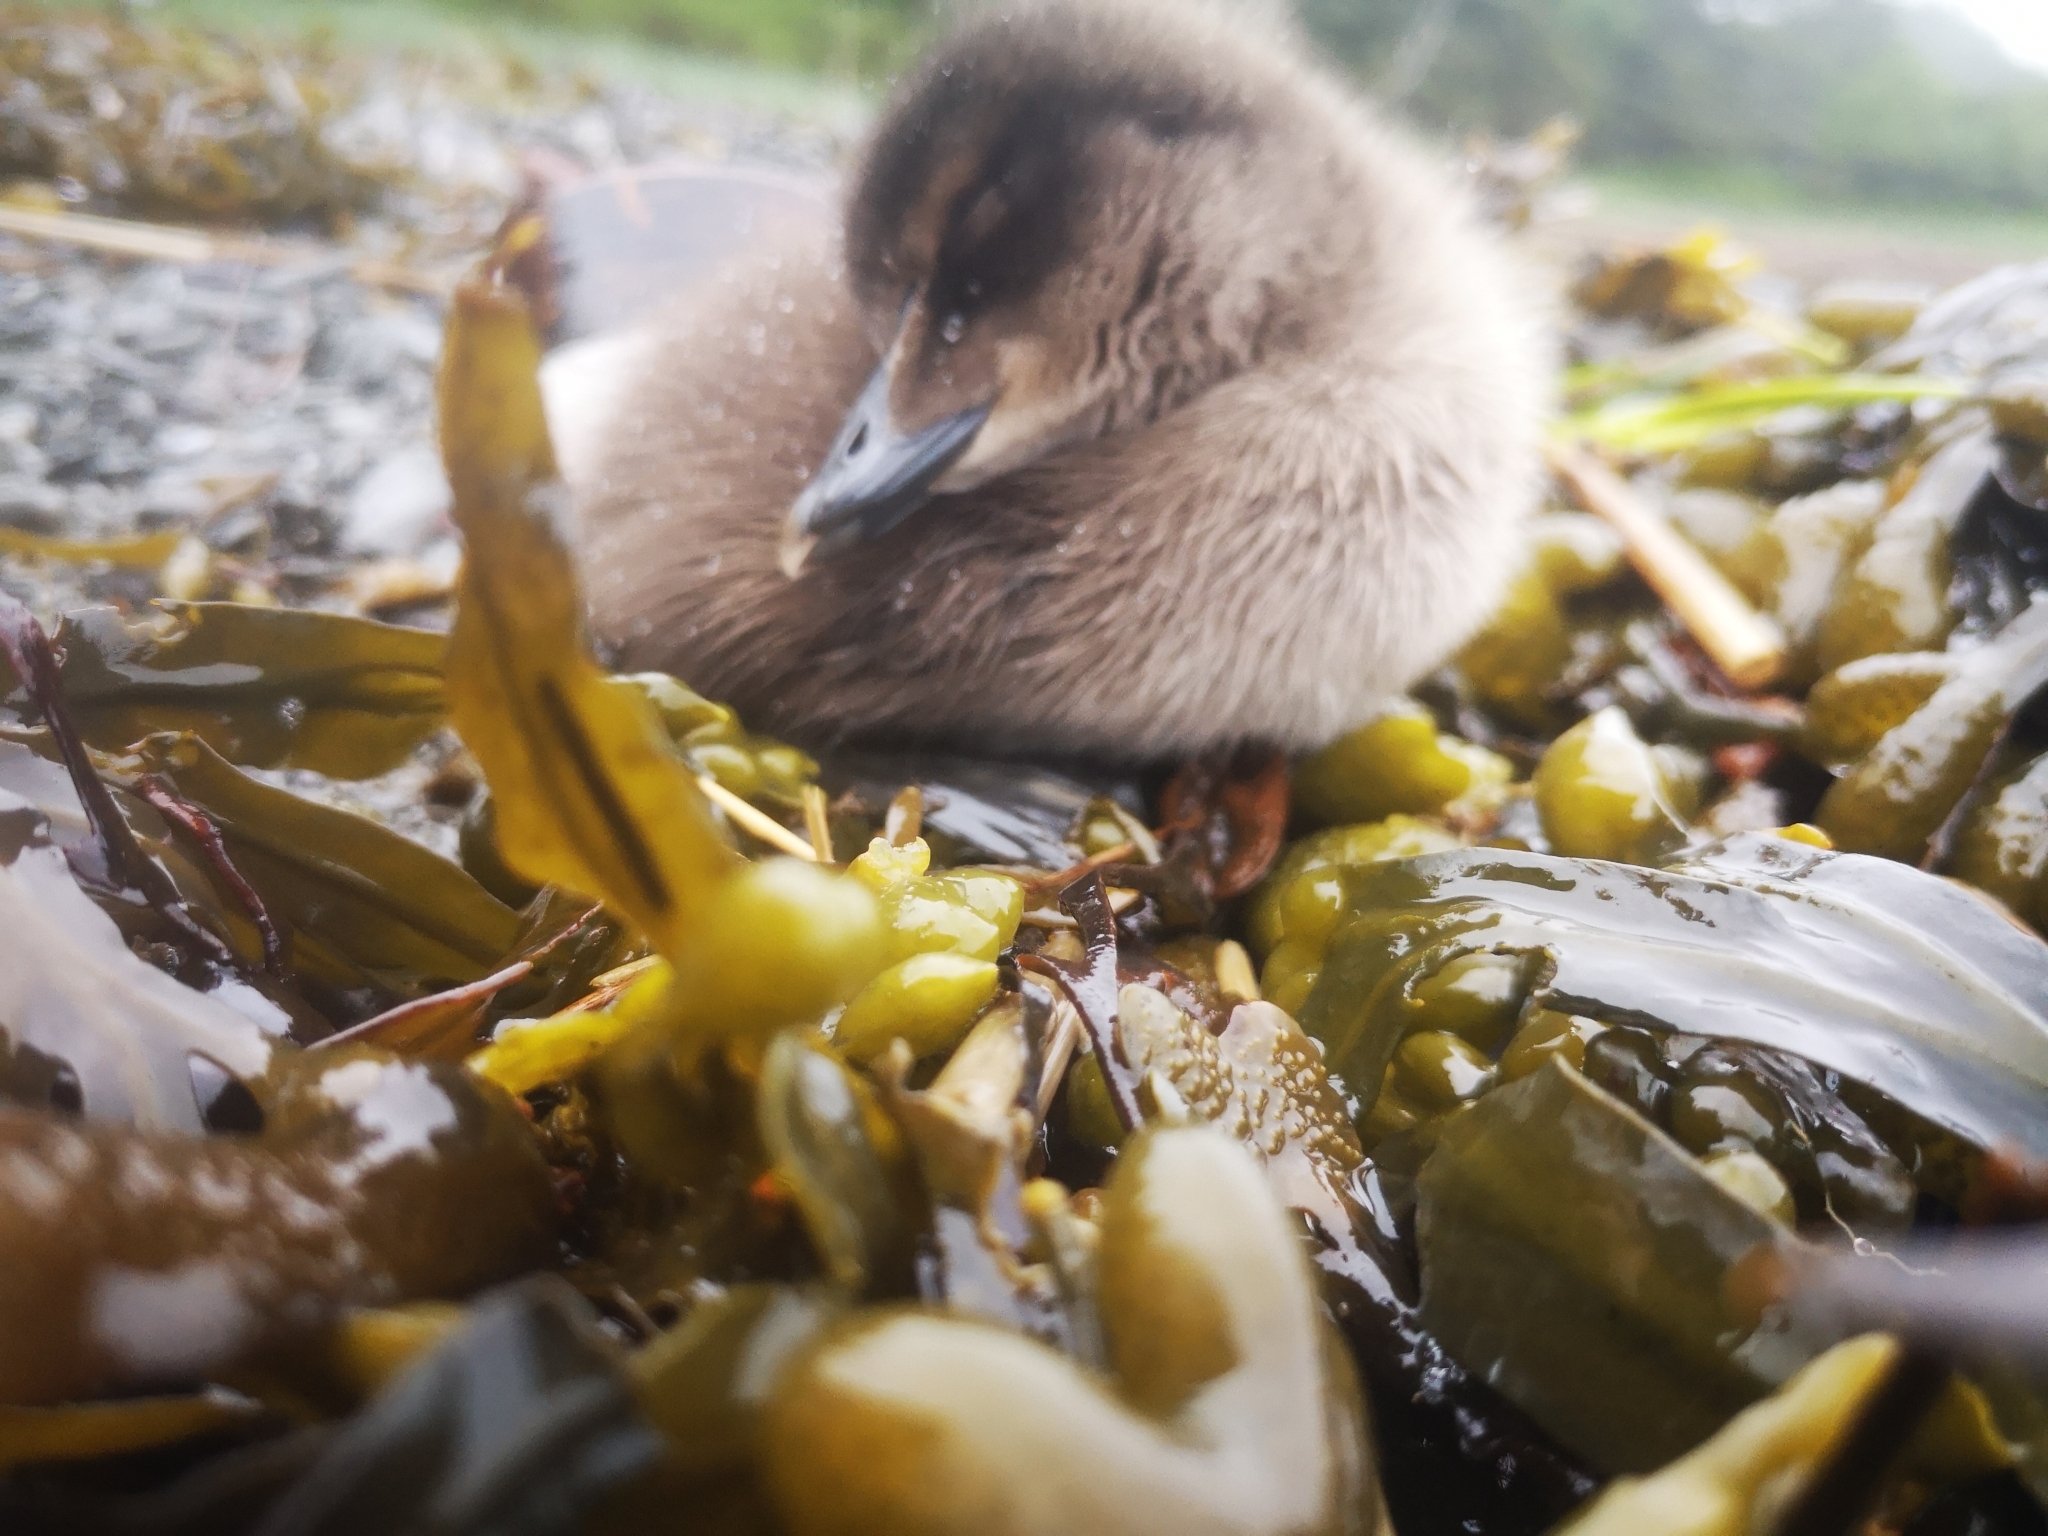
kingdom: Animalia
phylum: Chordata
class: Aves
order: Anseriformes
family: Anatidae
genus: Somateria
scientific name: Somateria mollissima
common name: Common eider
